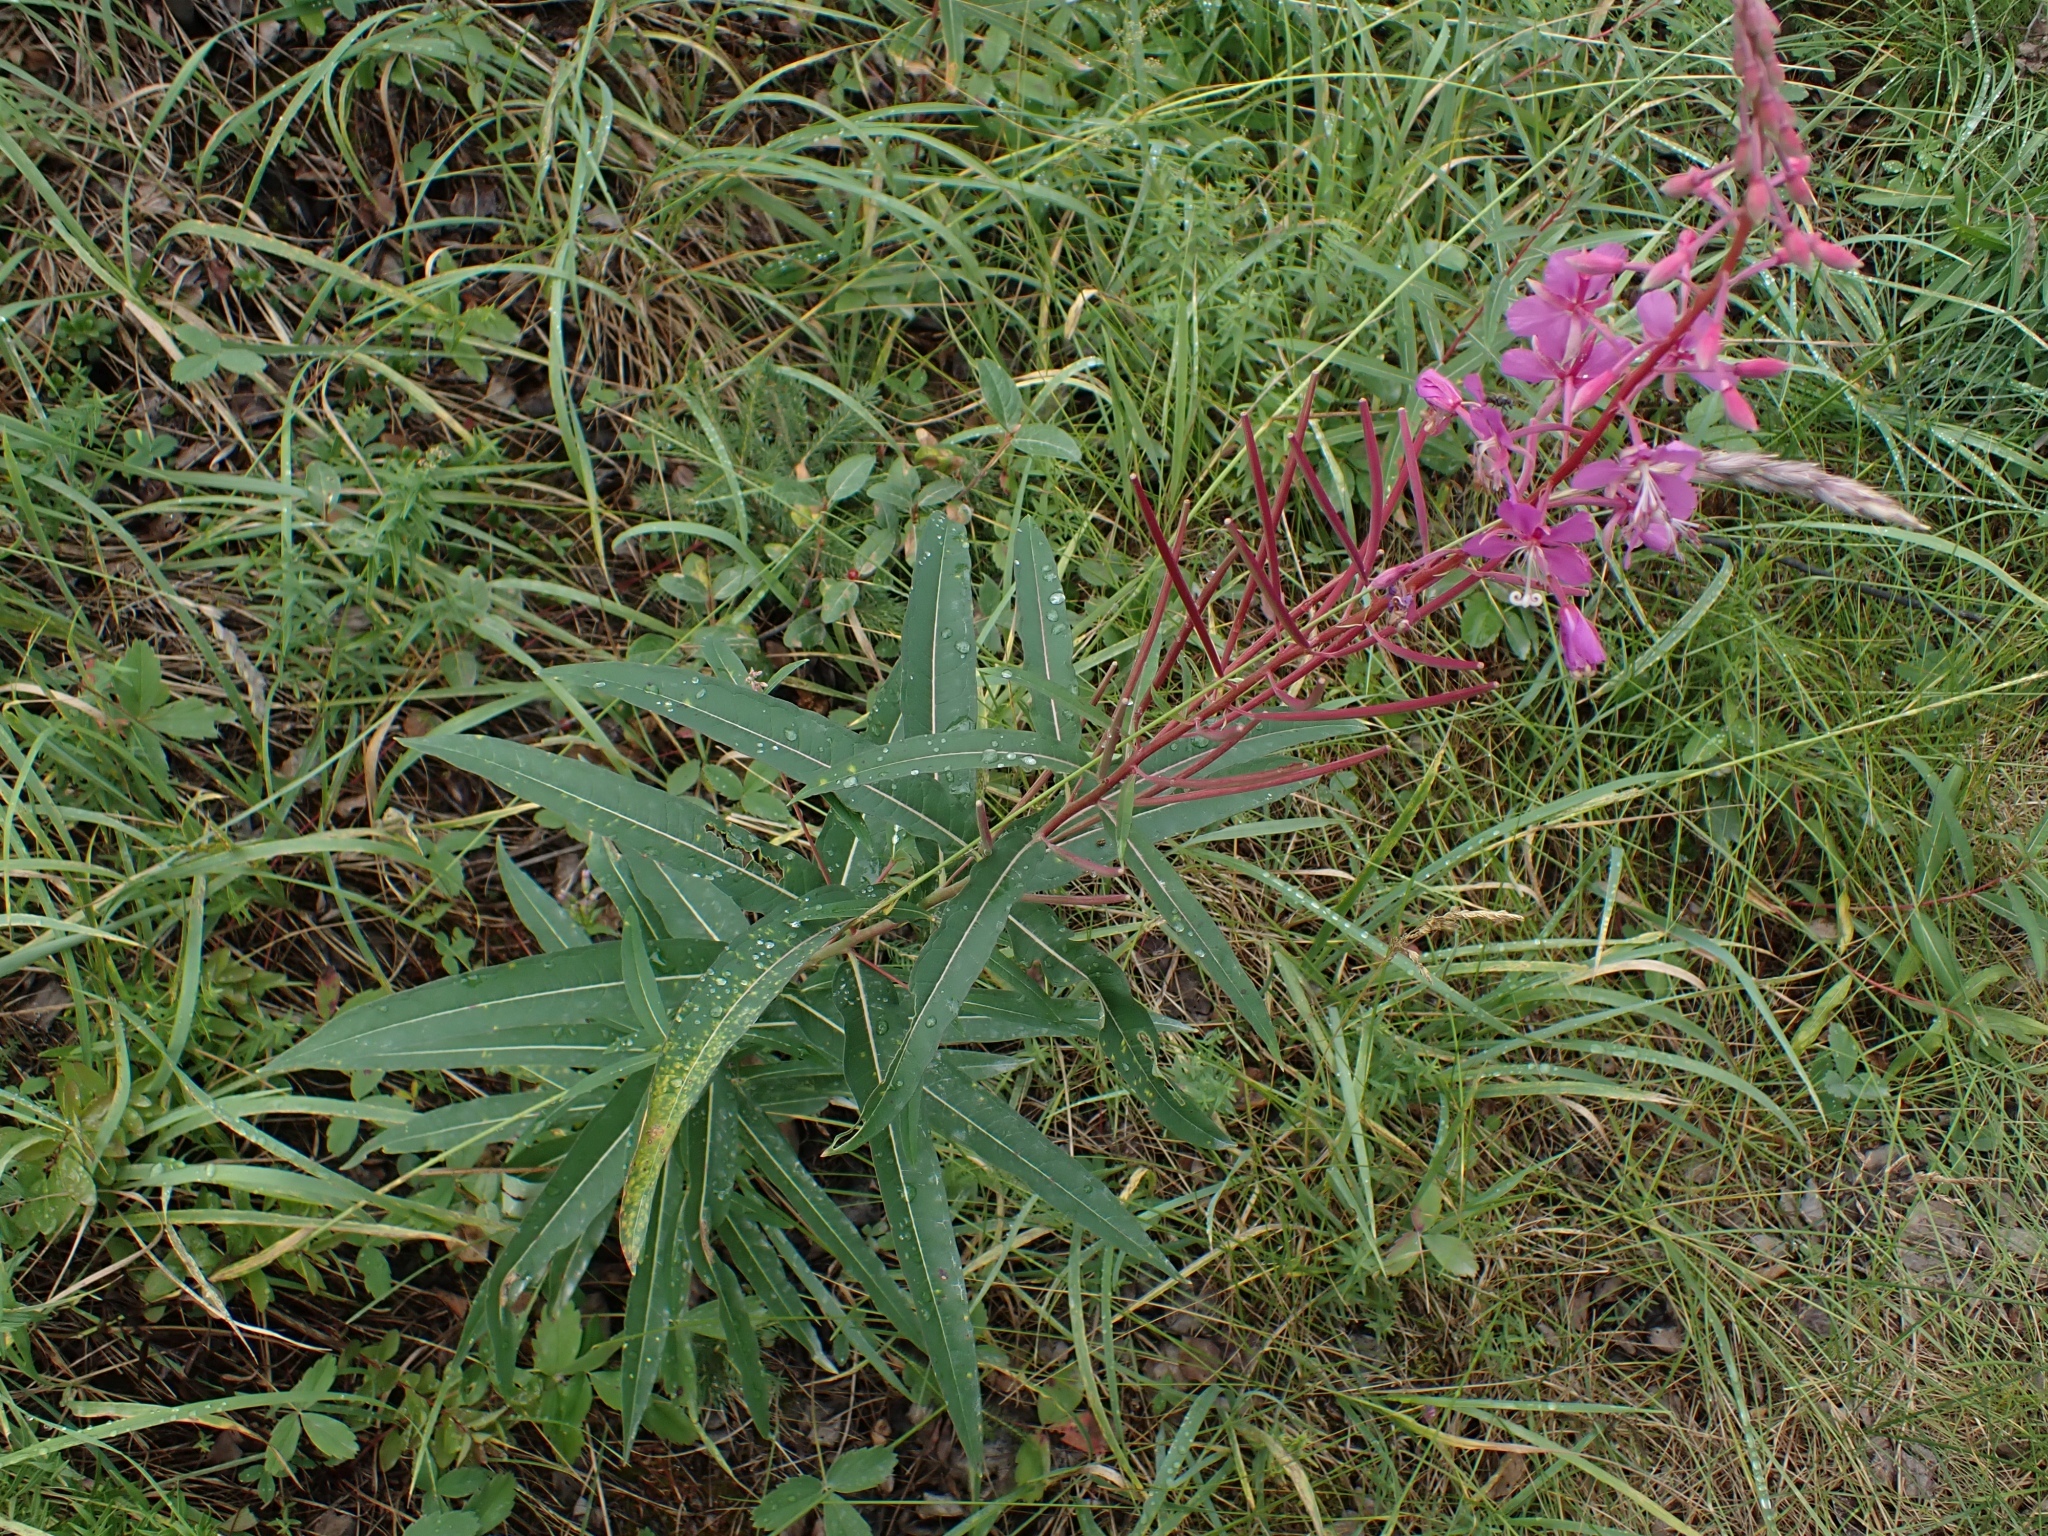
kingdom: Plantae
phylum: Tracheophyta
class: Magnoliopsida
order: Myrtales
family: Onagraceae
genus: Chamaenerion
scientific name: Chamaenerion angustifolium
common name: Fireweed
